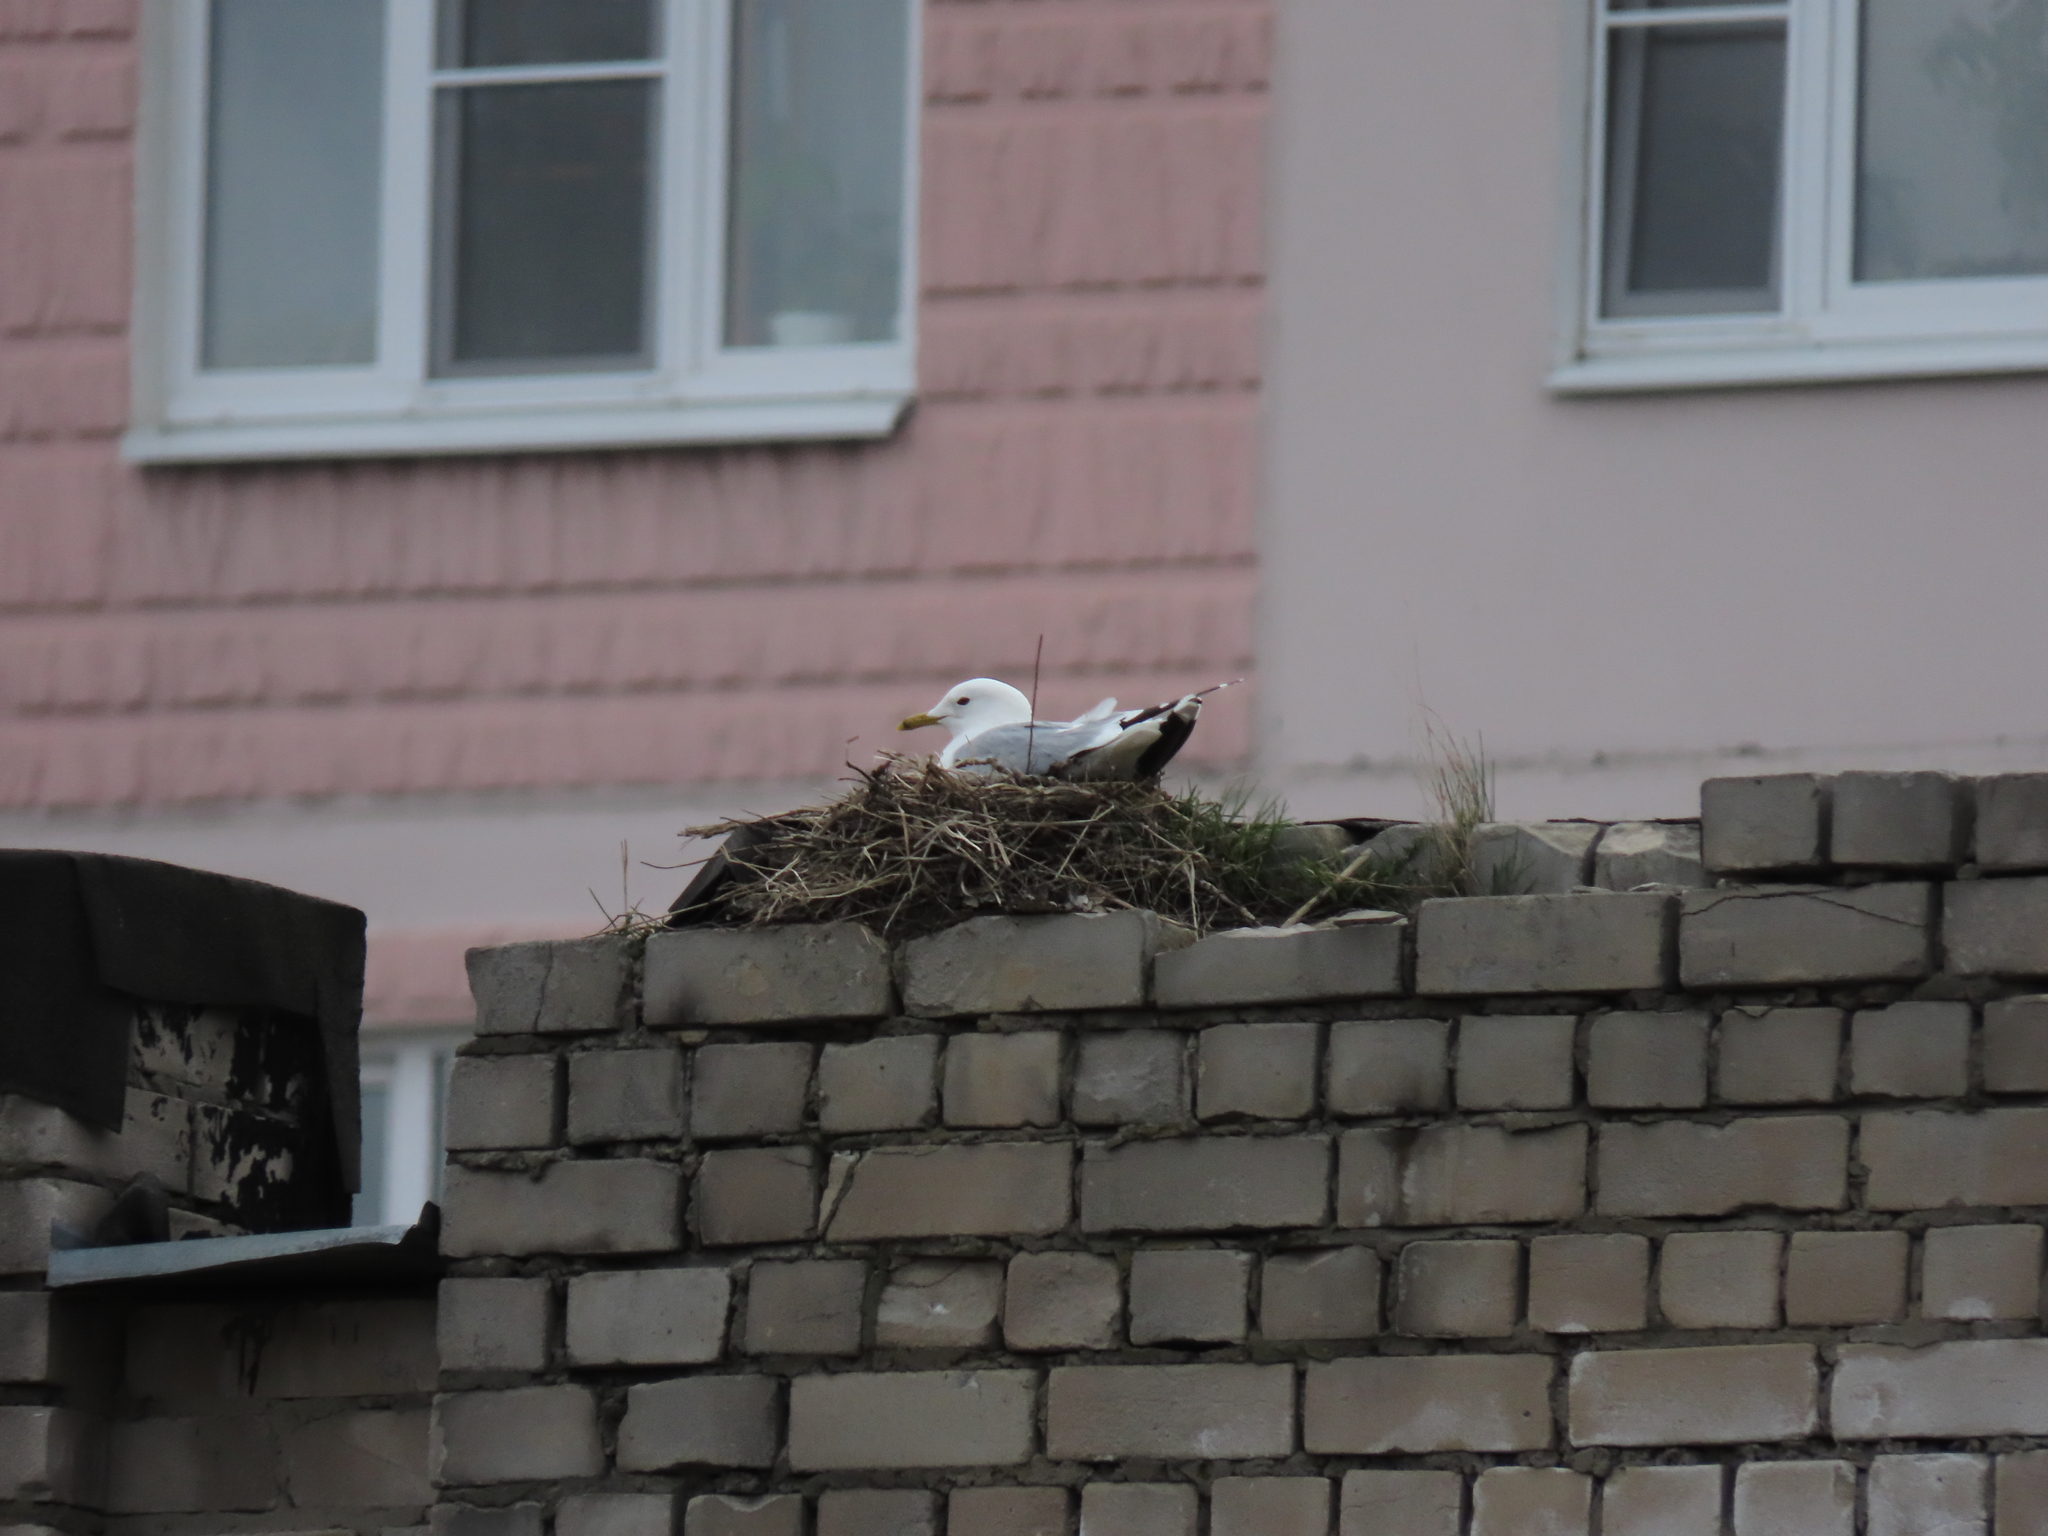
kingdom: Animalia
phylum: Chordata
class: Aves
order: Charadriiformes
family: Laridae
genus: Larus
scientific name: Larus canus
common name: Mew gull
